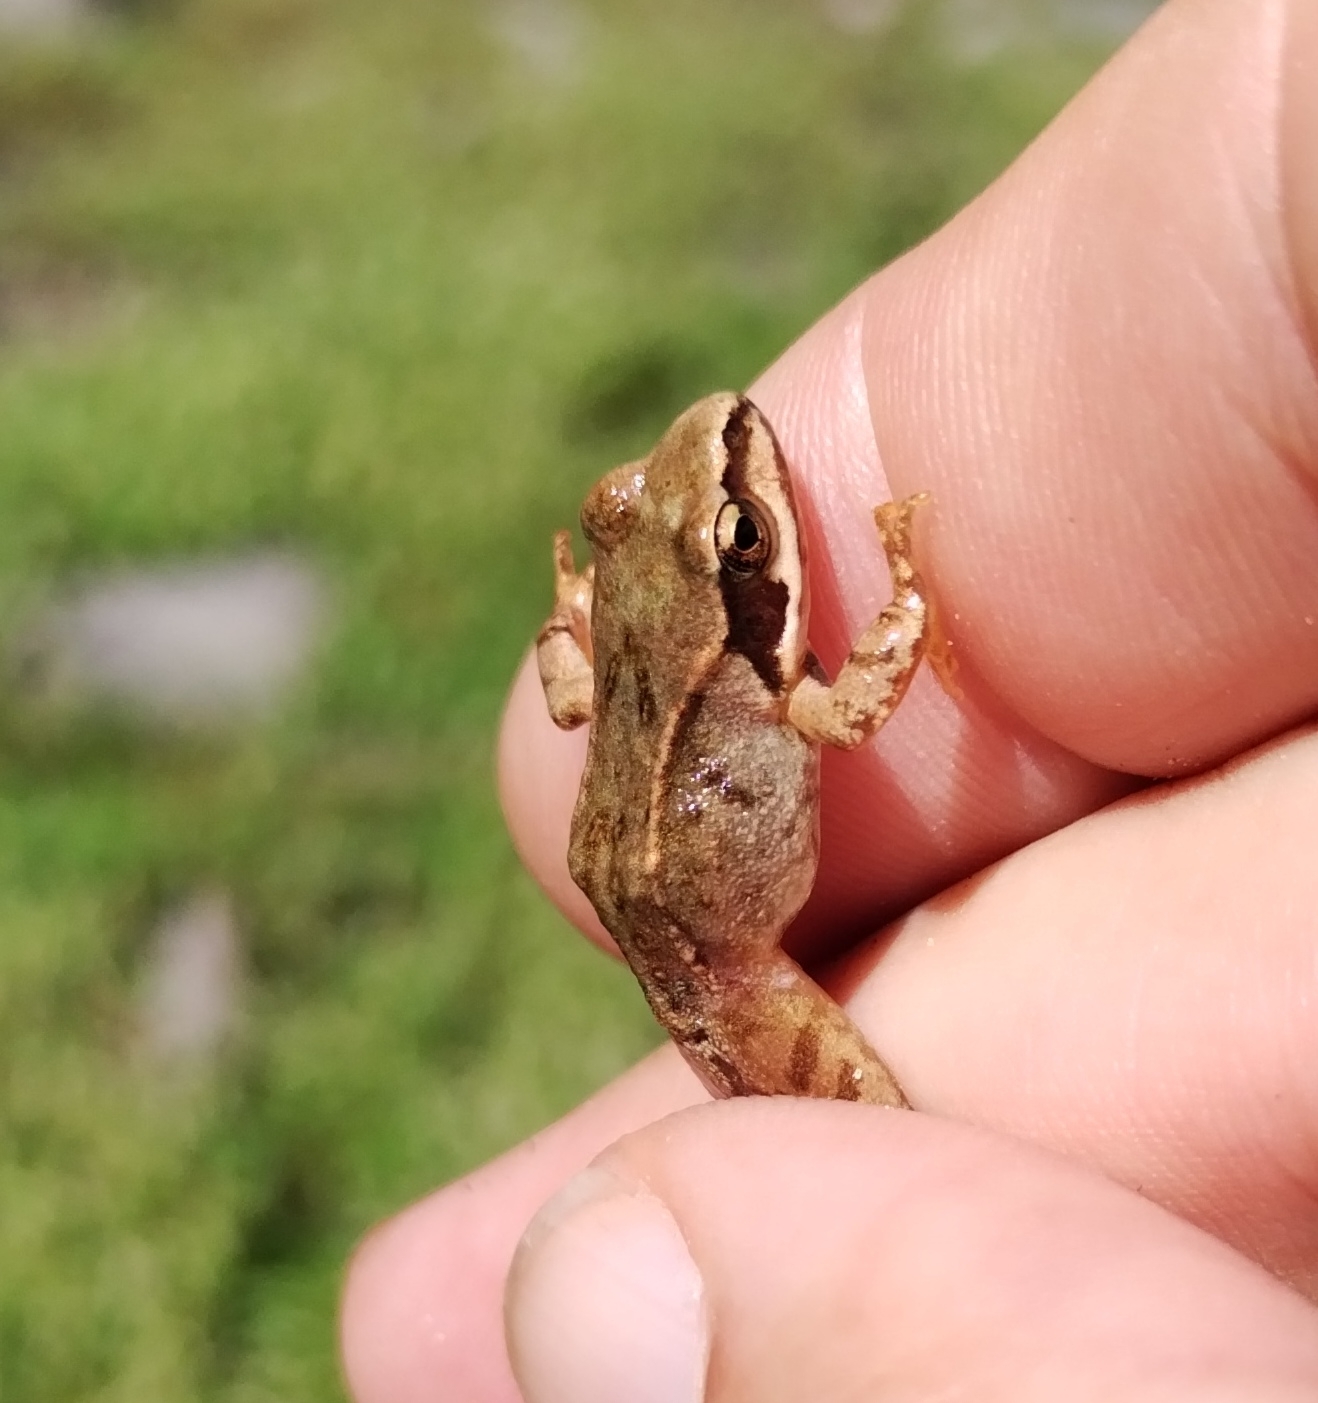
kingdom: Animalia
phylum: Chordata
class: Amphibia
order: Anura
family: Ranidae
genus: Rana
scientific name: Rana temporaria
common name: Common frog
